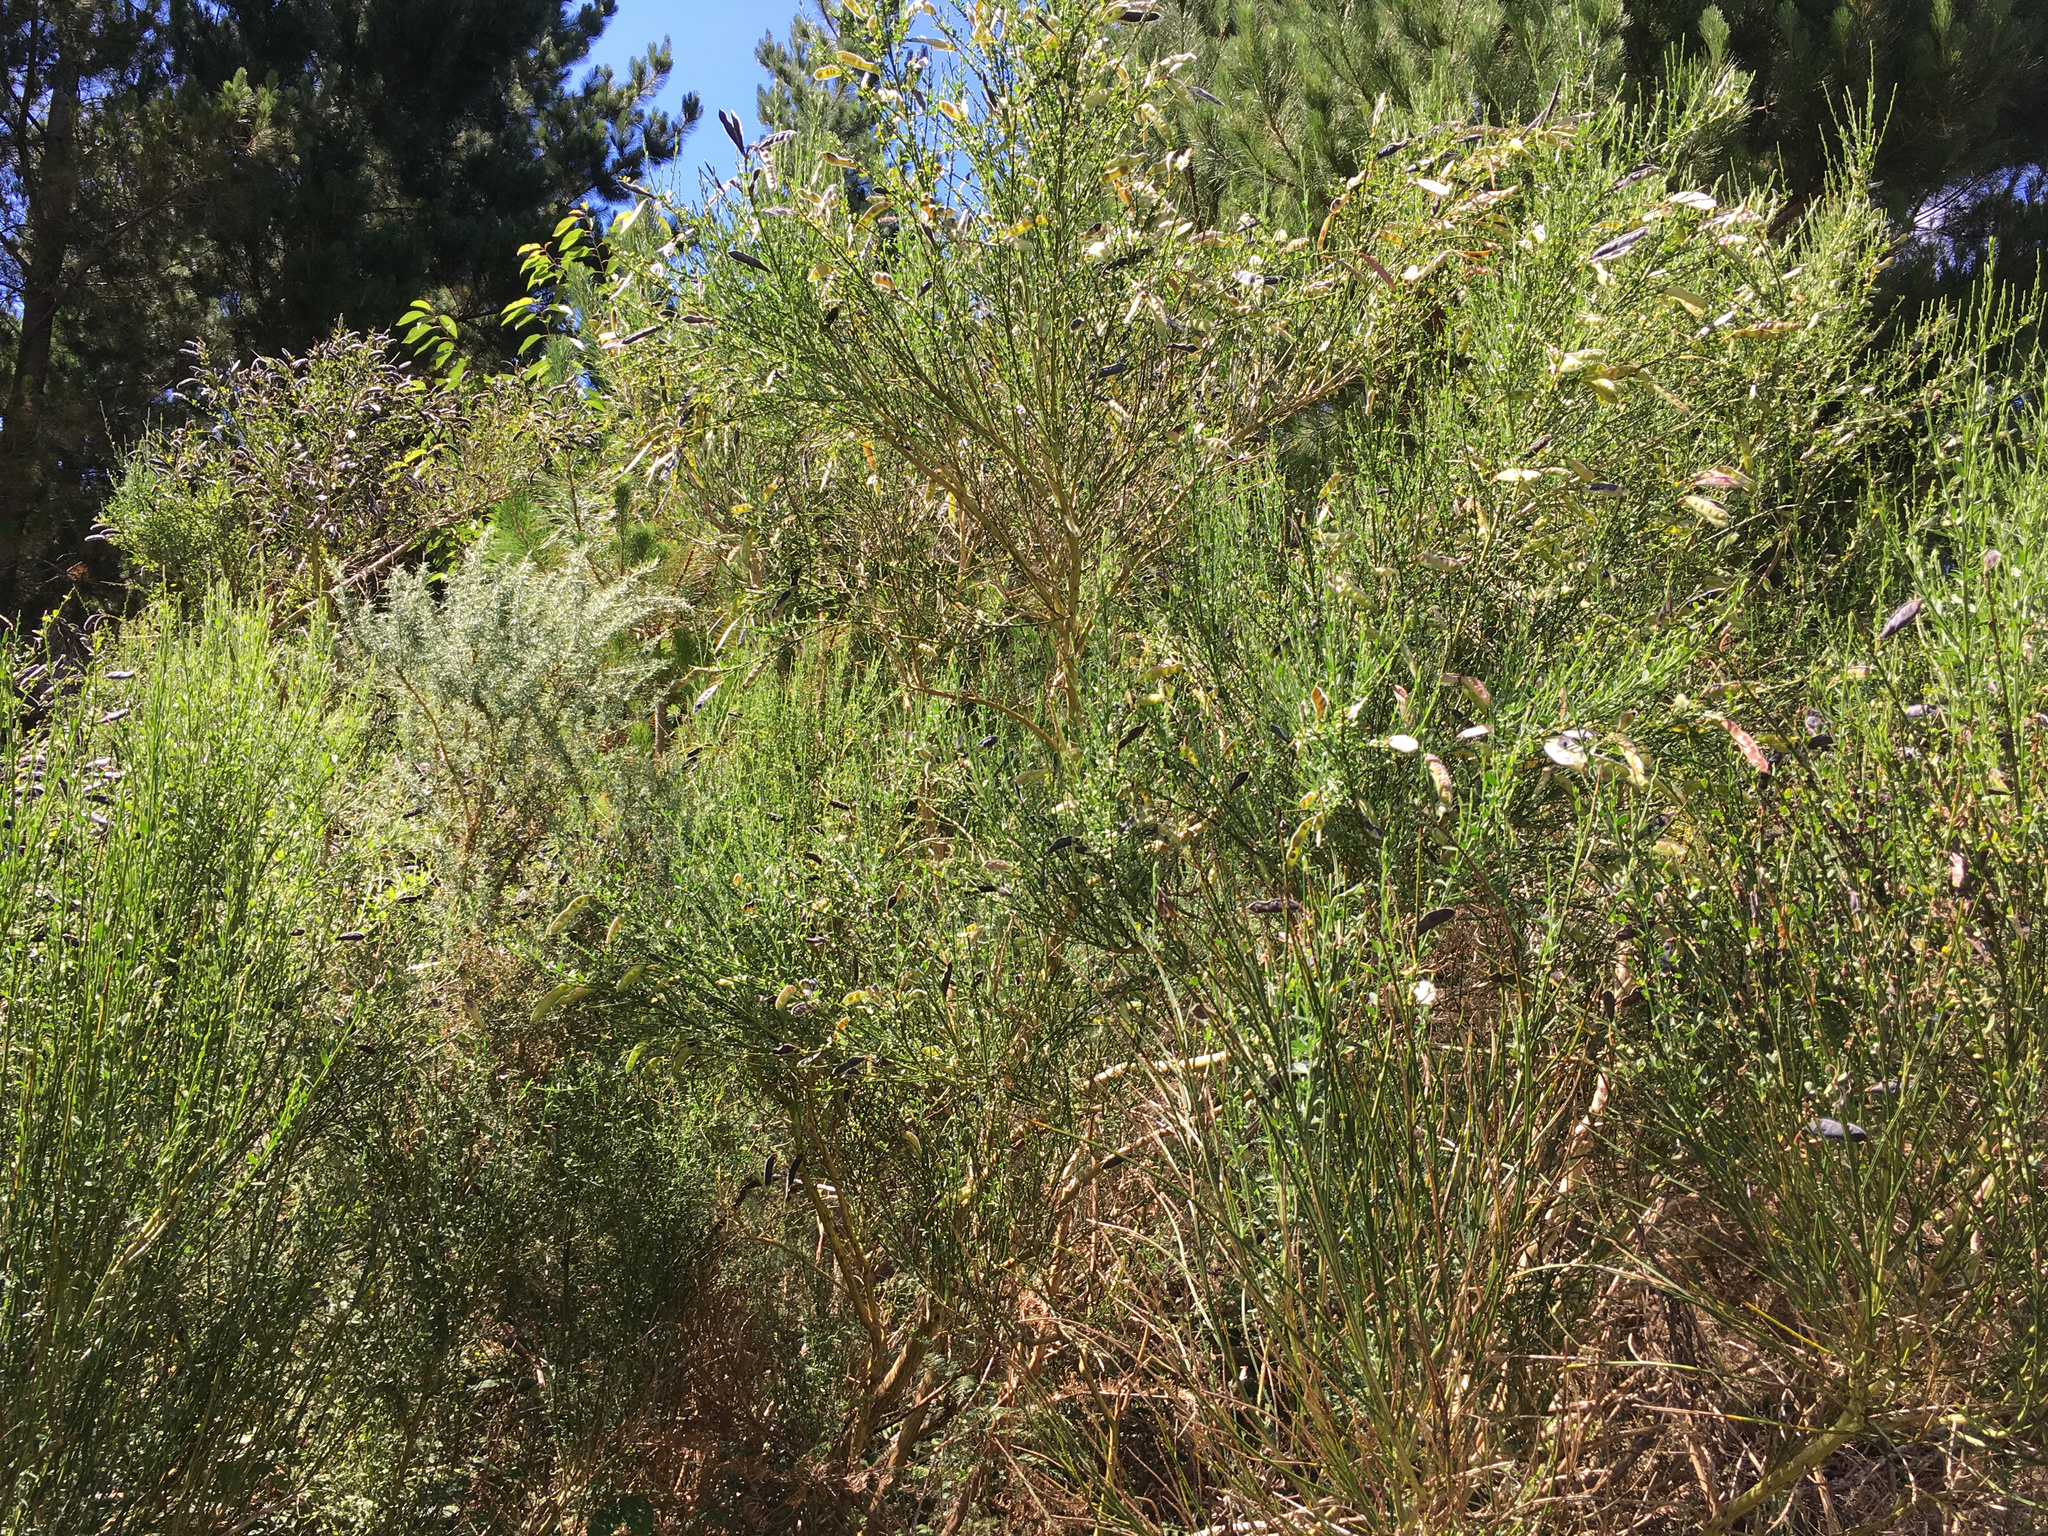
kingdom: Plantae
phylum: Tracheophyta
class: Magnoliopsida
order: Fabales
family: Fabaceae
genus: Cytisus
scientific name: Cytisus scoparius
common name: Scotch broom
